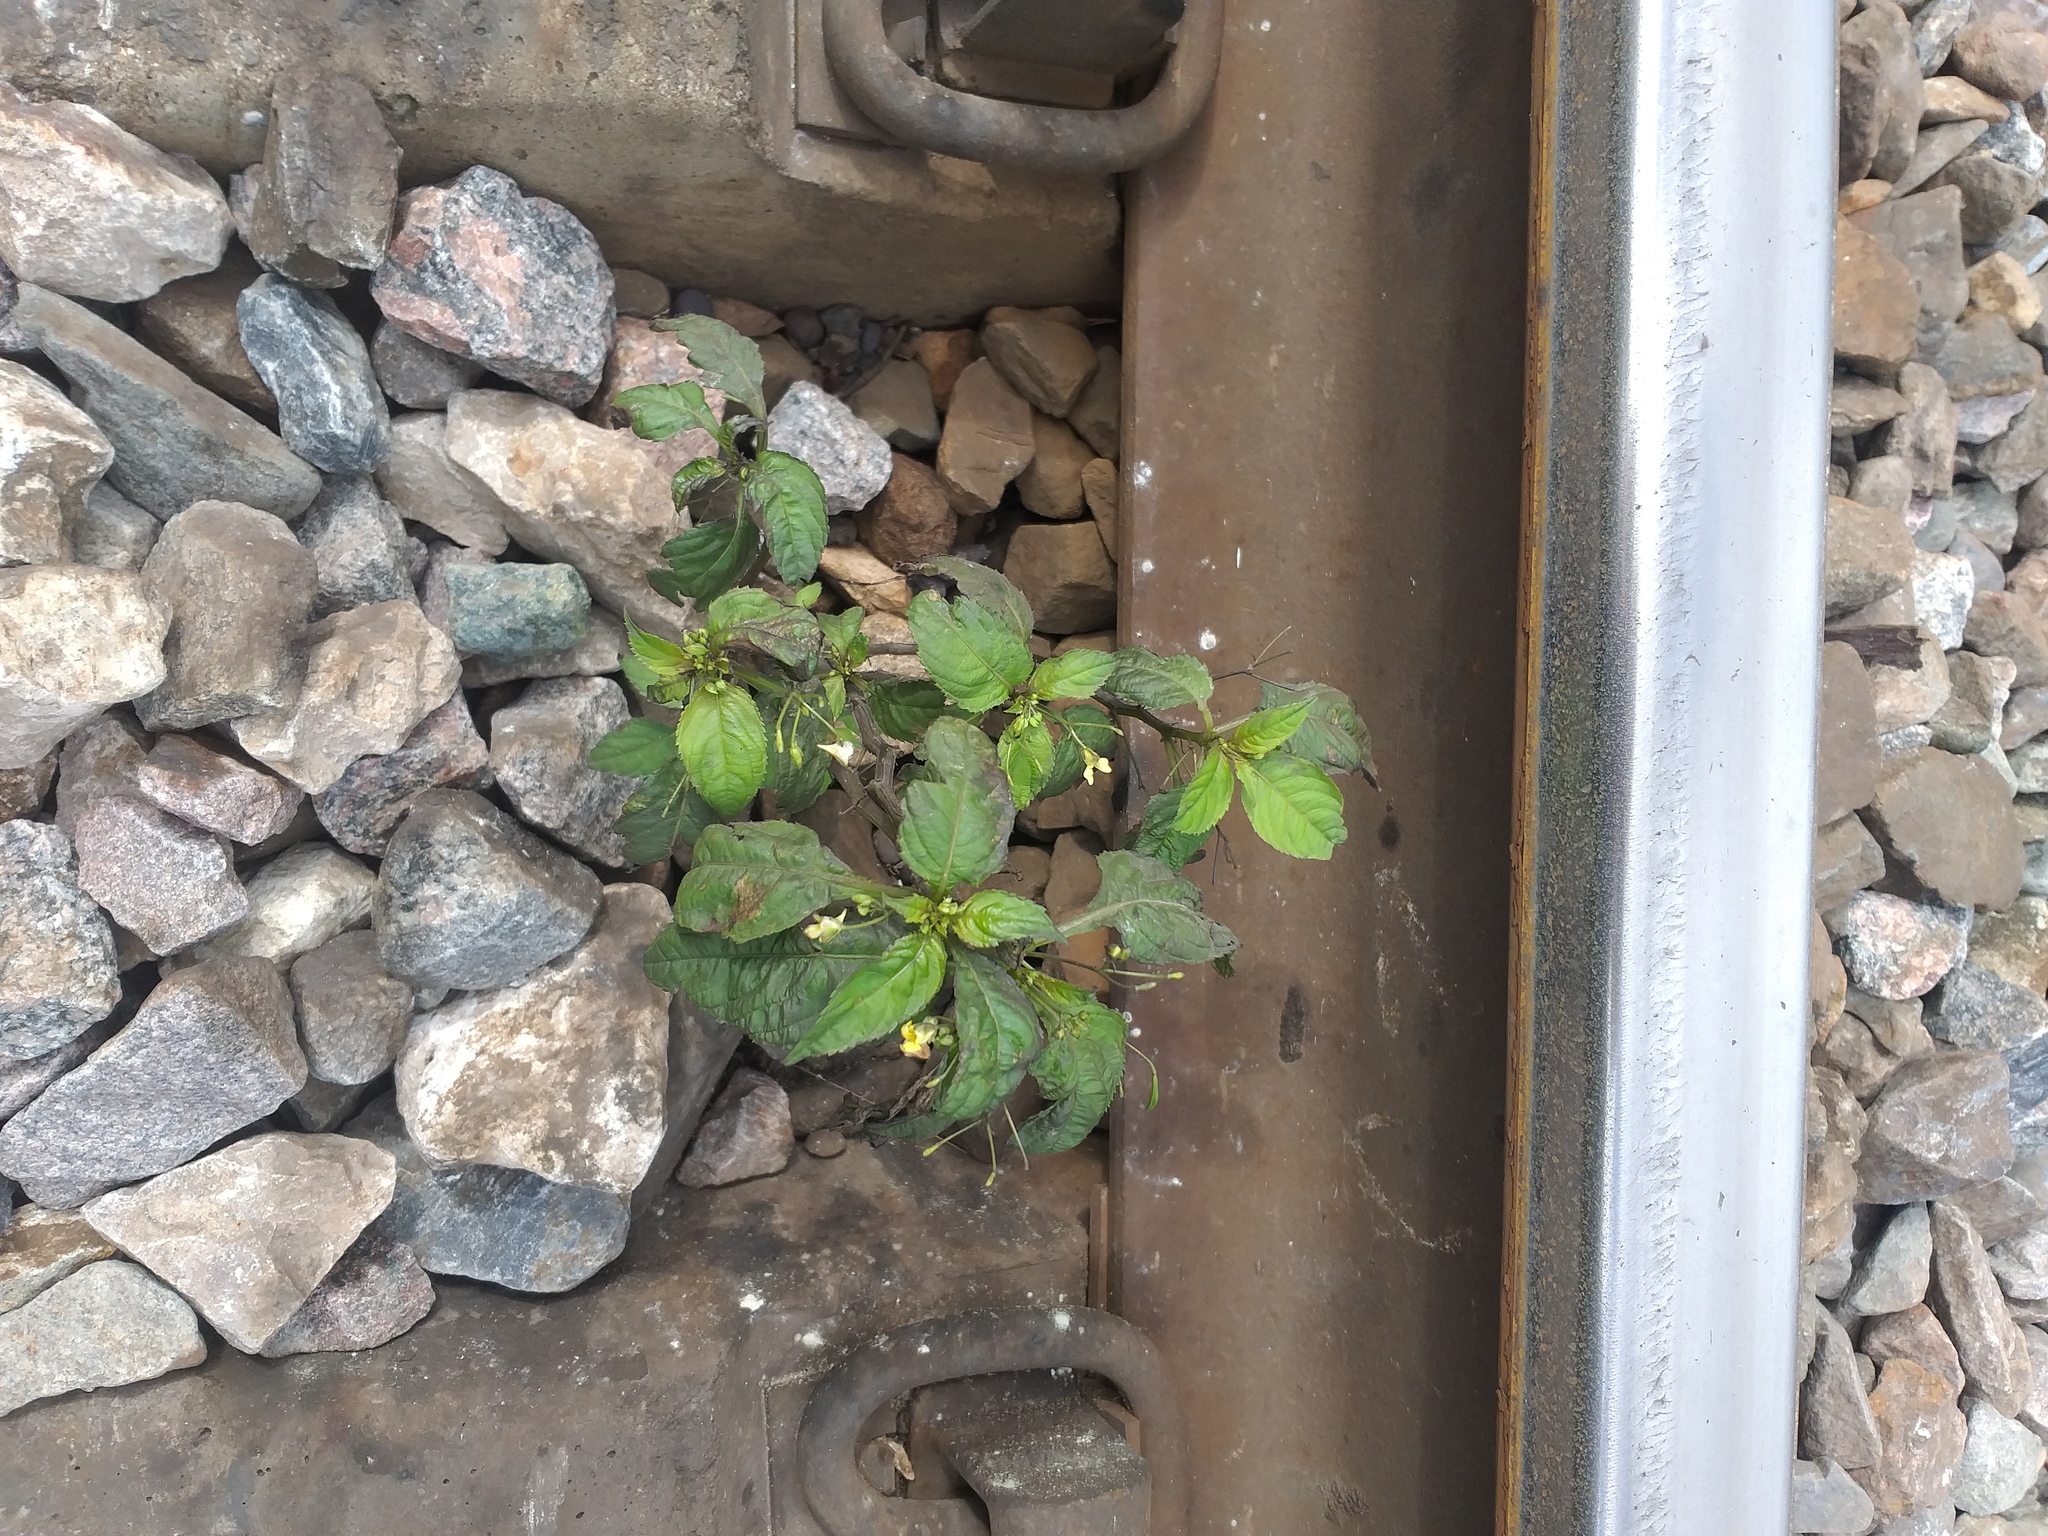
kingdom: Plantae
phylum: Tracheophyta
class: Magnoliopsida
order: Ericales
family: Balsaminaceae
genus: Impatiens
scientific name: Impatiens parviflora
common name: Small balsam
